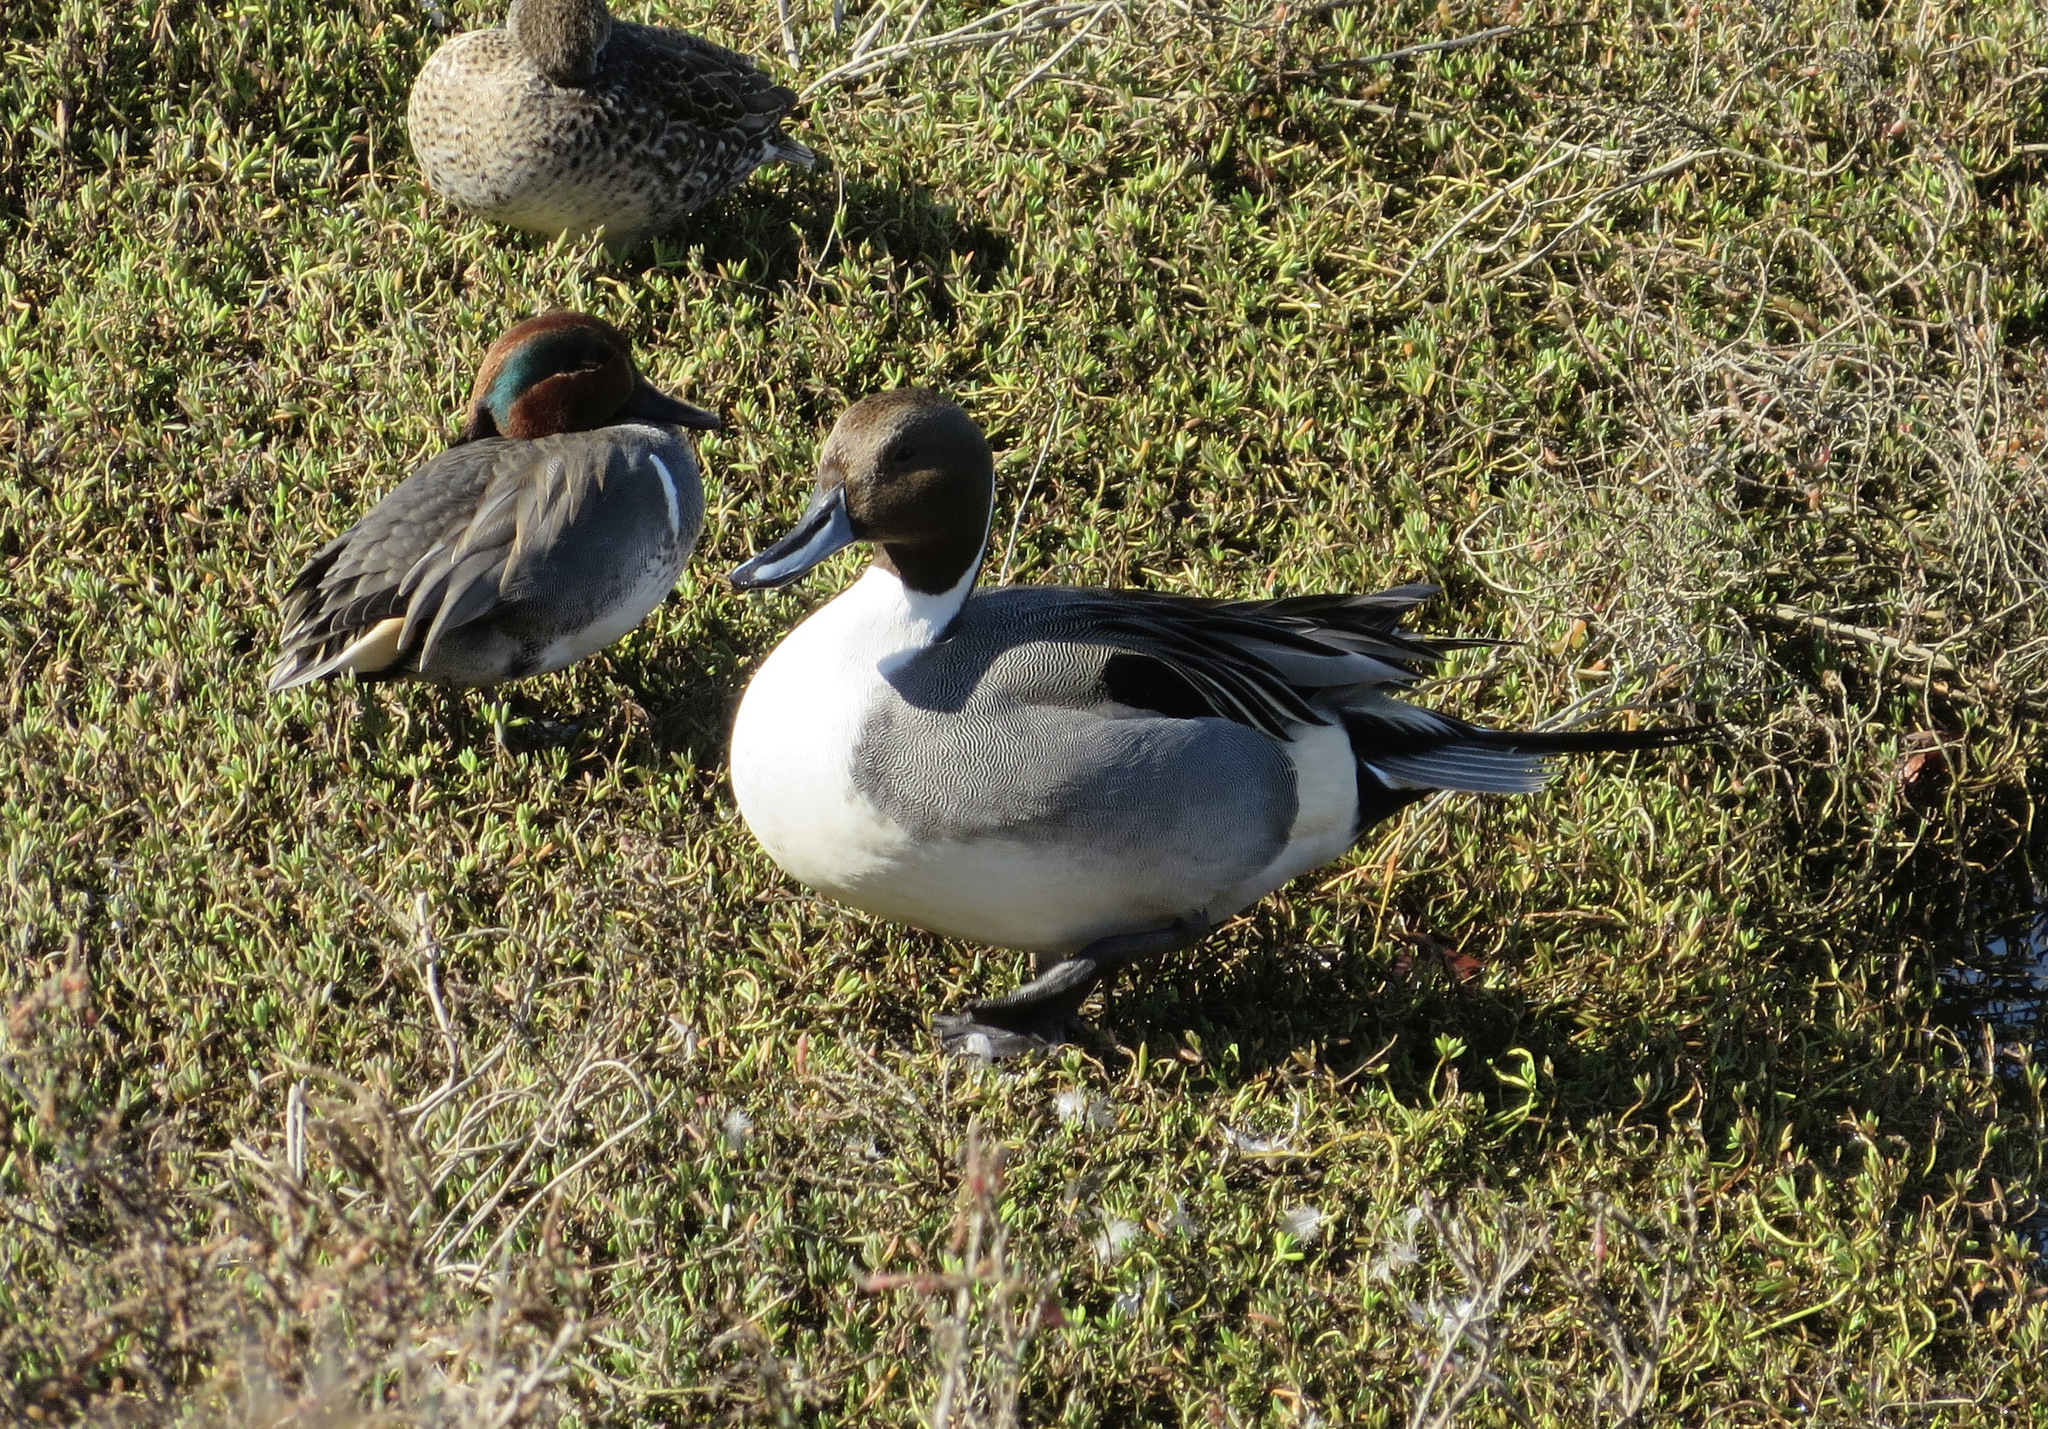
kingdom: Animalia
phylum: Chordata
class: Aves
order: Anseriformes
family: Anatidae
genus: Anas
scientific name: Anas crecca
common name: Eurasian teal
